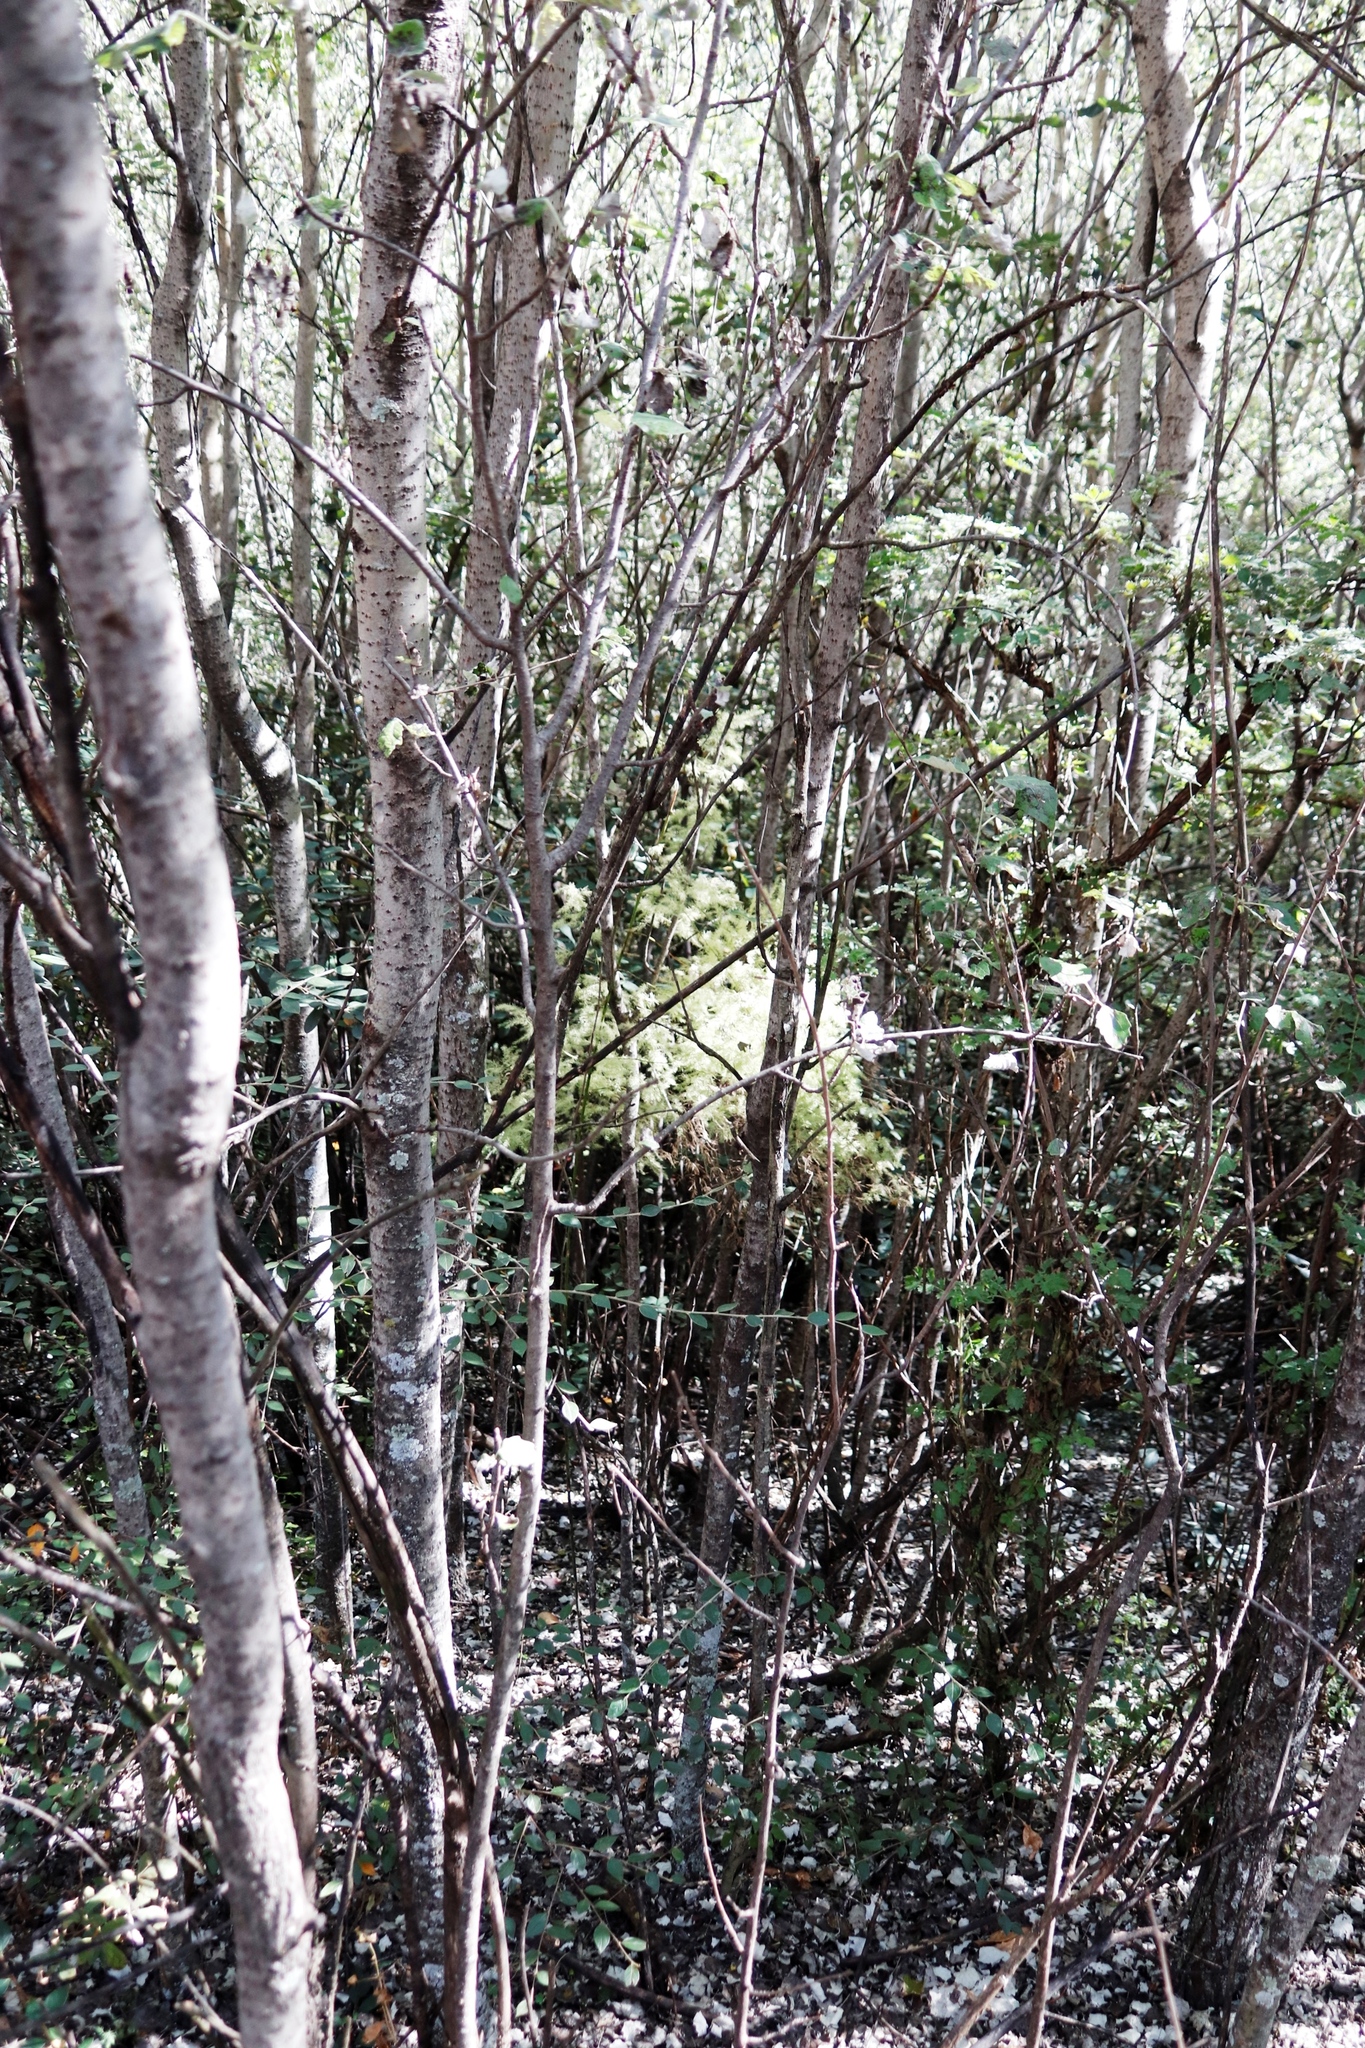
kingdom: Plantae
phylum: Tracheophyta
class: Liliopsida
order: Asparagales
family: Asparagaceae
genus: Asparagus
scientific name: Asparagus setaceus
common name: Common asparagus fern
